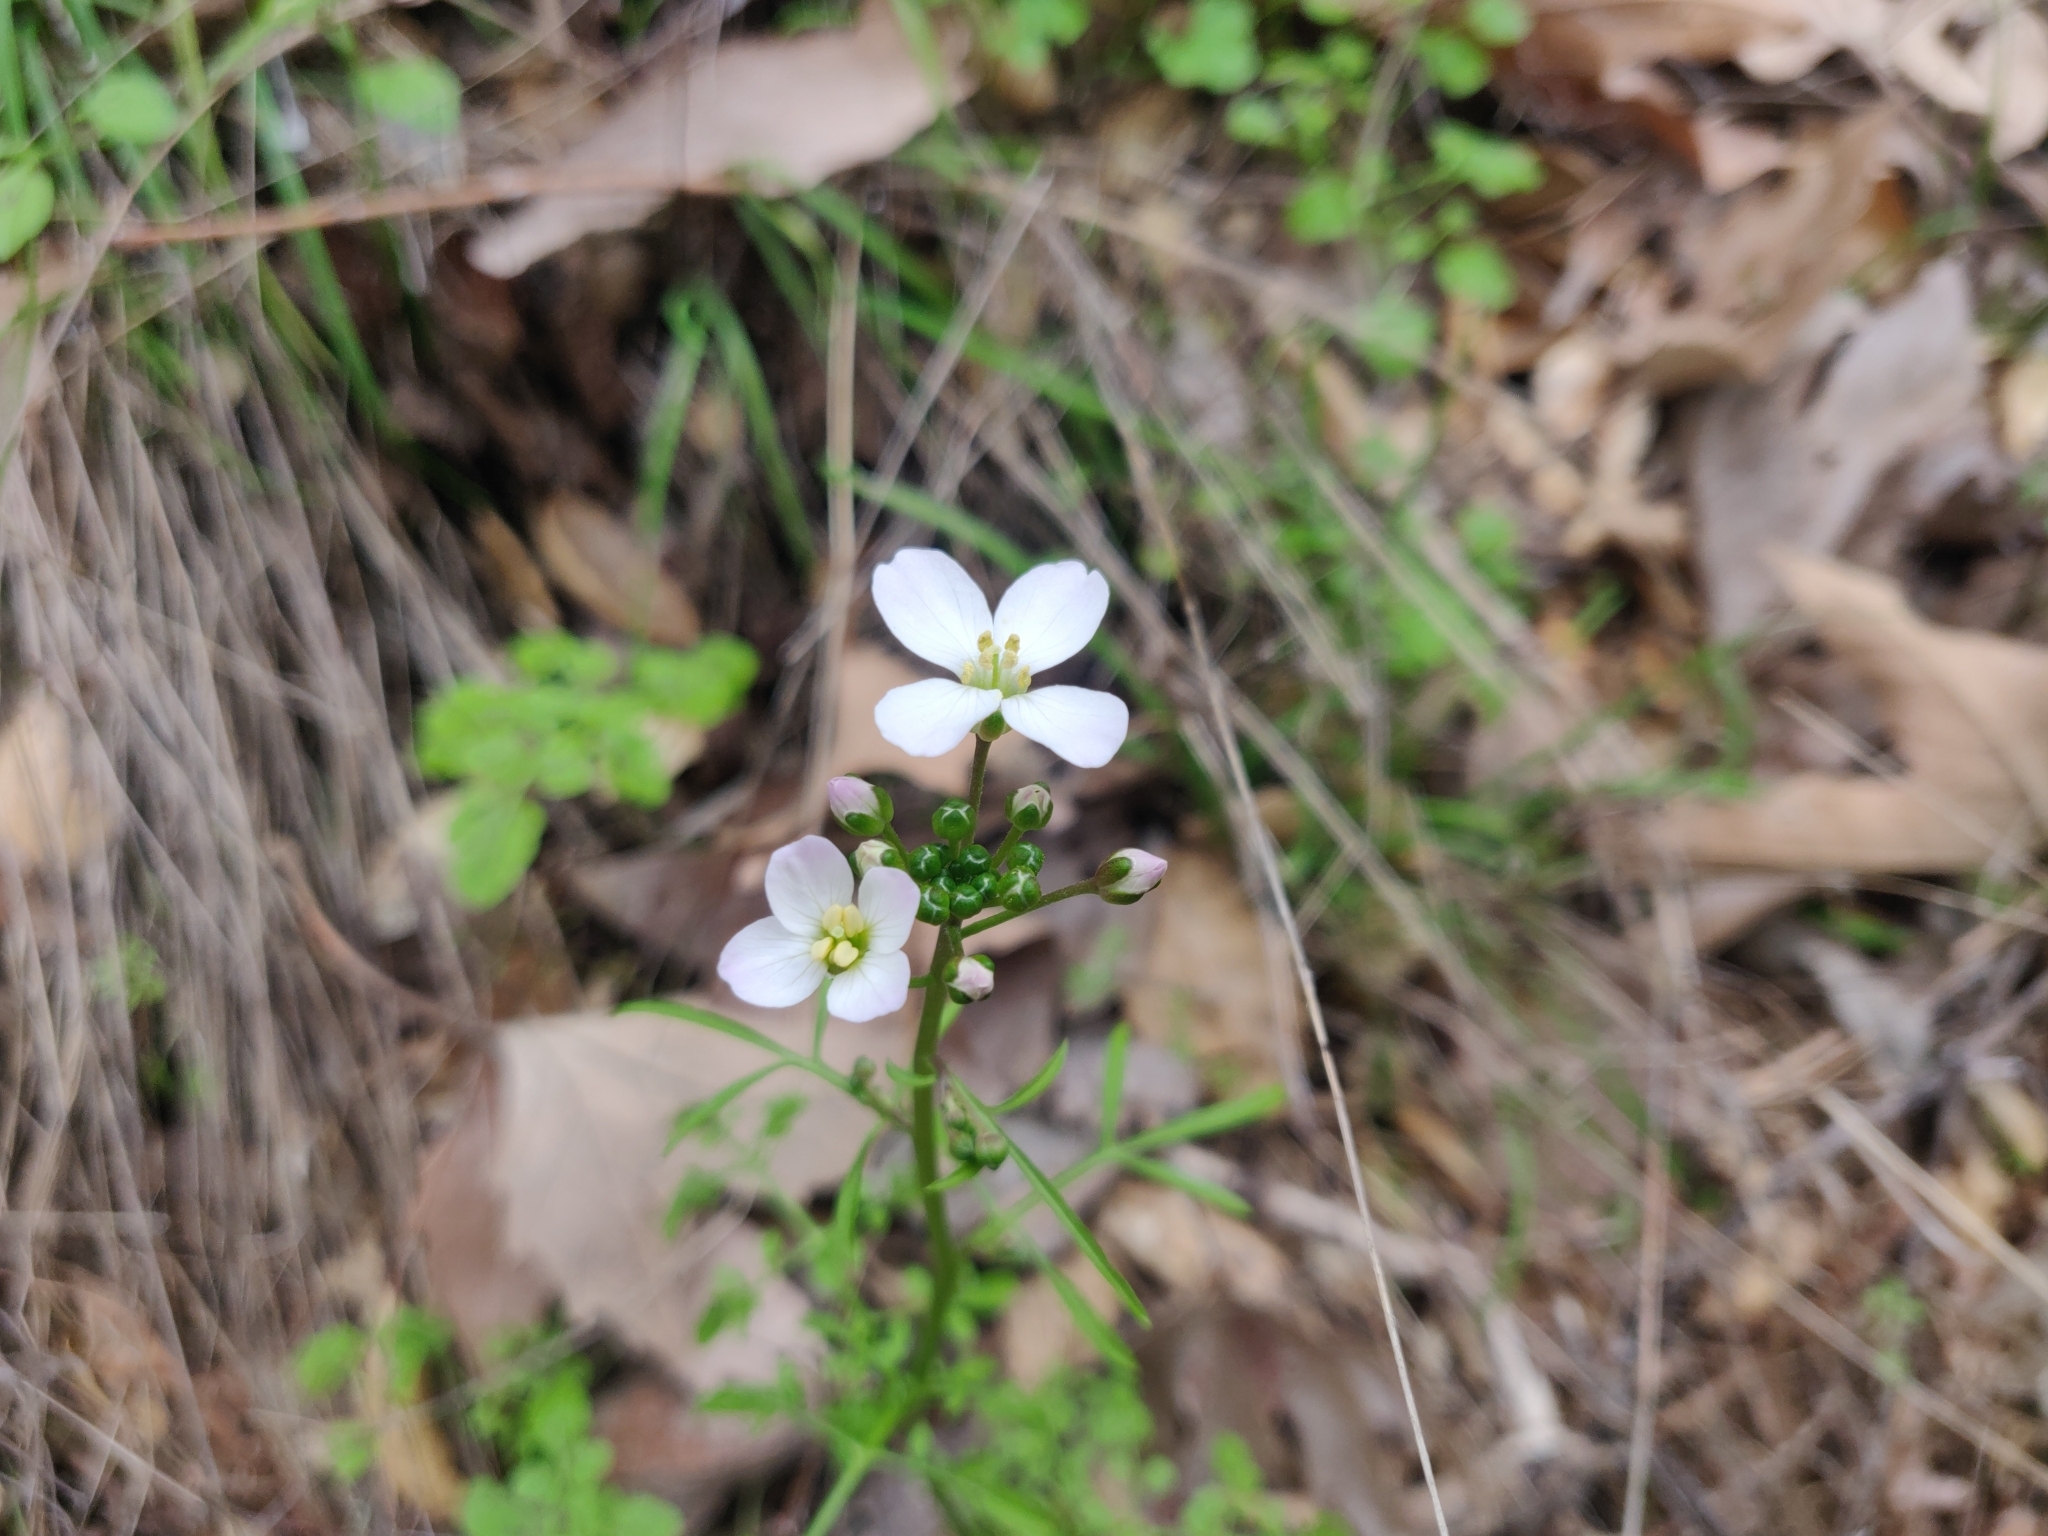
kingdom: Plantae
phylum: Tracheophyta
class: Magnoliopsida
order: Brassicales
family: Brassicaceae
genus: Cardamine
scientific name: Cardamine californica
